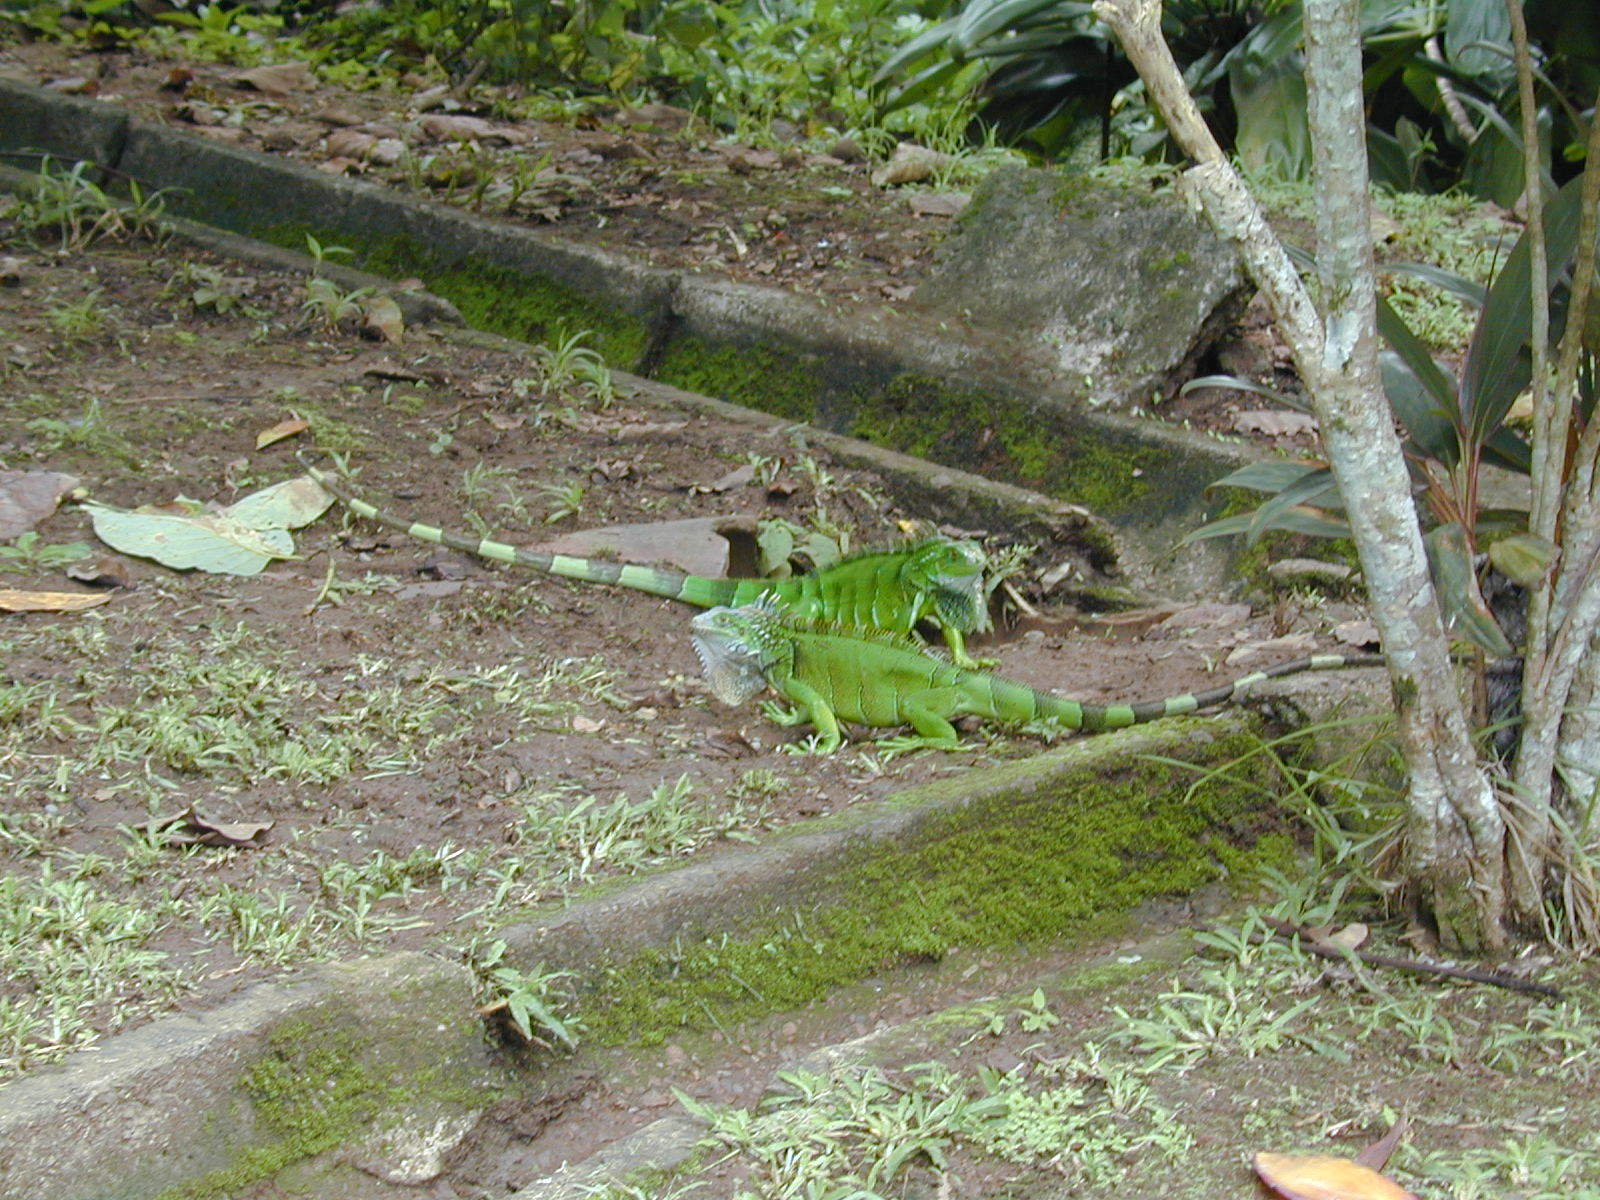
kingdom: Animalia
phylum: Chordata
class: Squamata
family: Iguanidae
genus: Iguana
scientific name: Iguana iguana
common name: Green iguana
